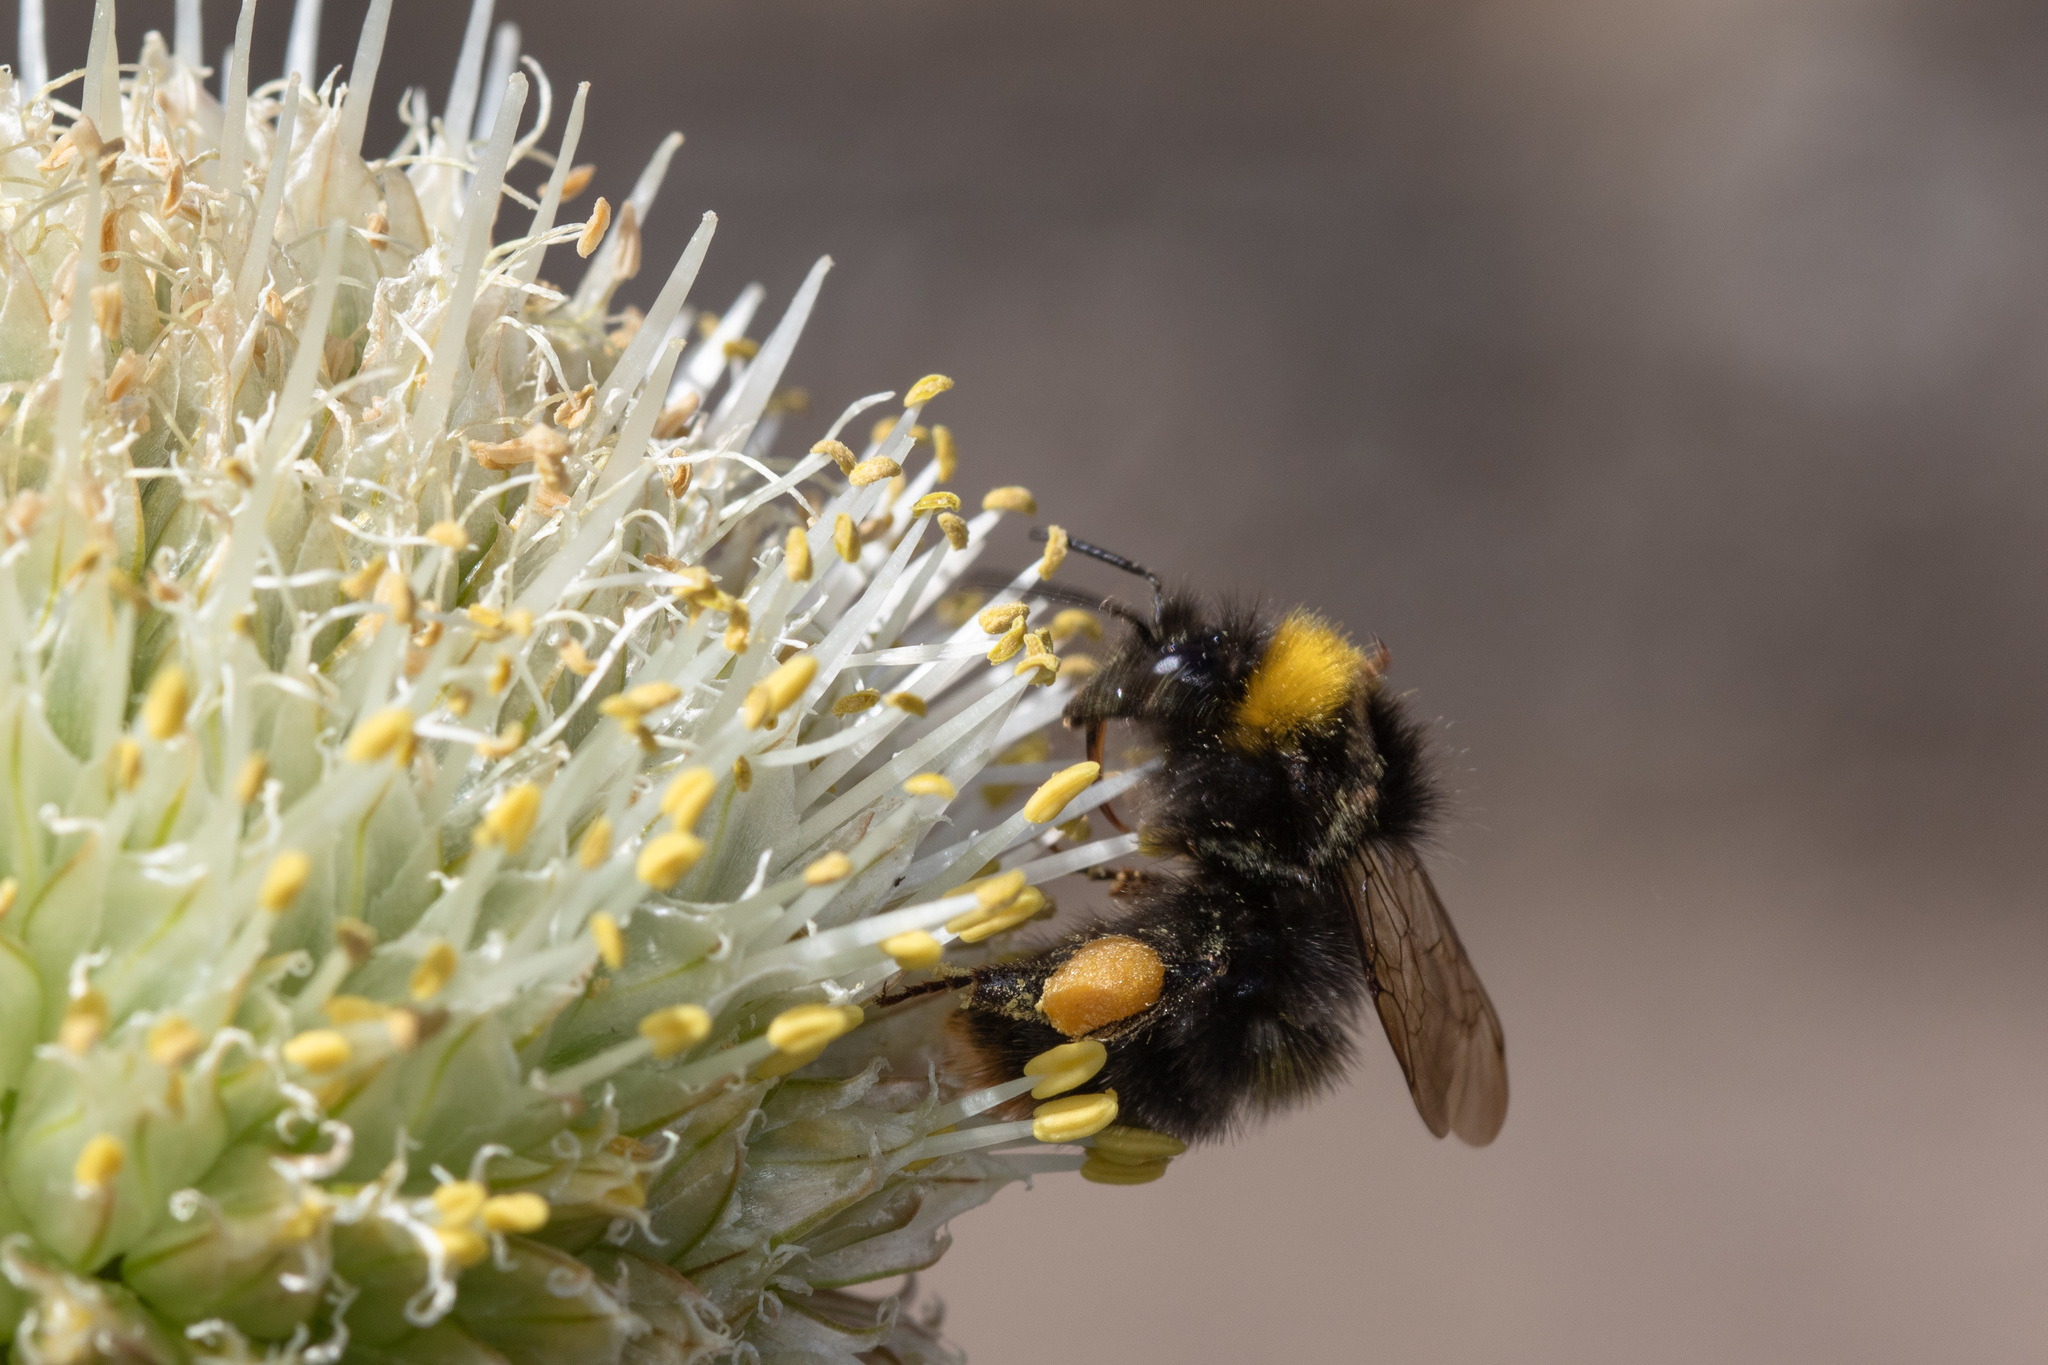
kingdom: Animalia
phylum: Arthropoda
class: Insecta
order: Hymenoptera
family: Apidae
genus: Bombus
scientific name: Bombus pratorum
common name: Early humble-bee
